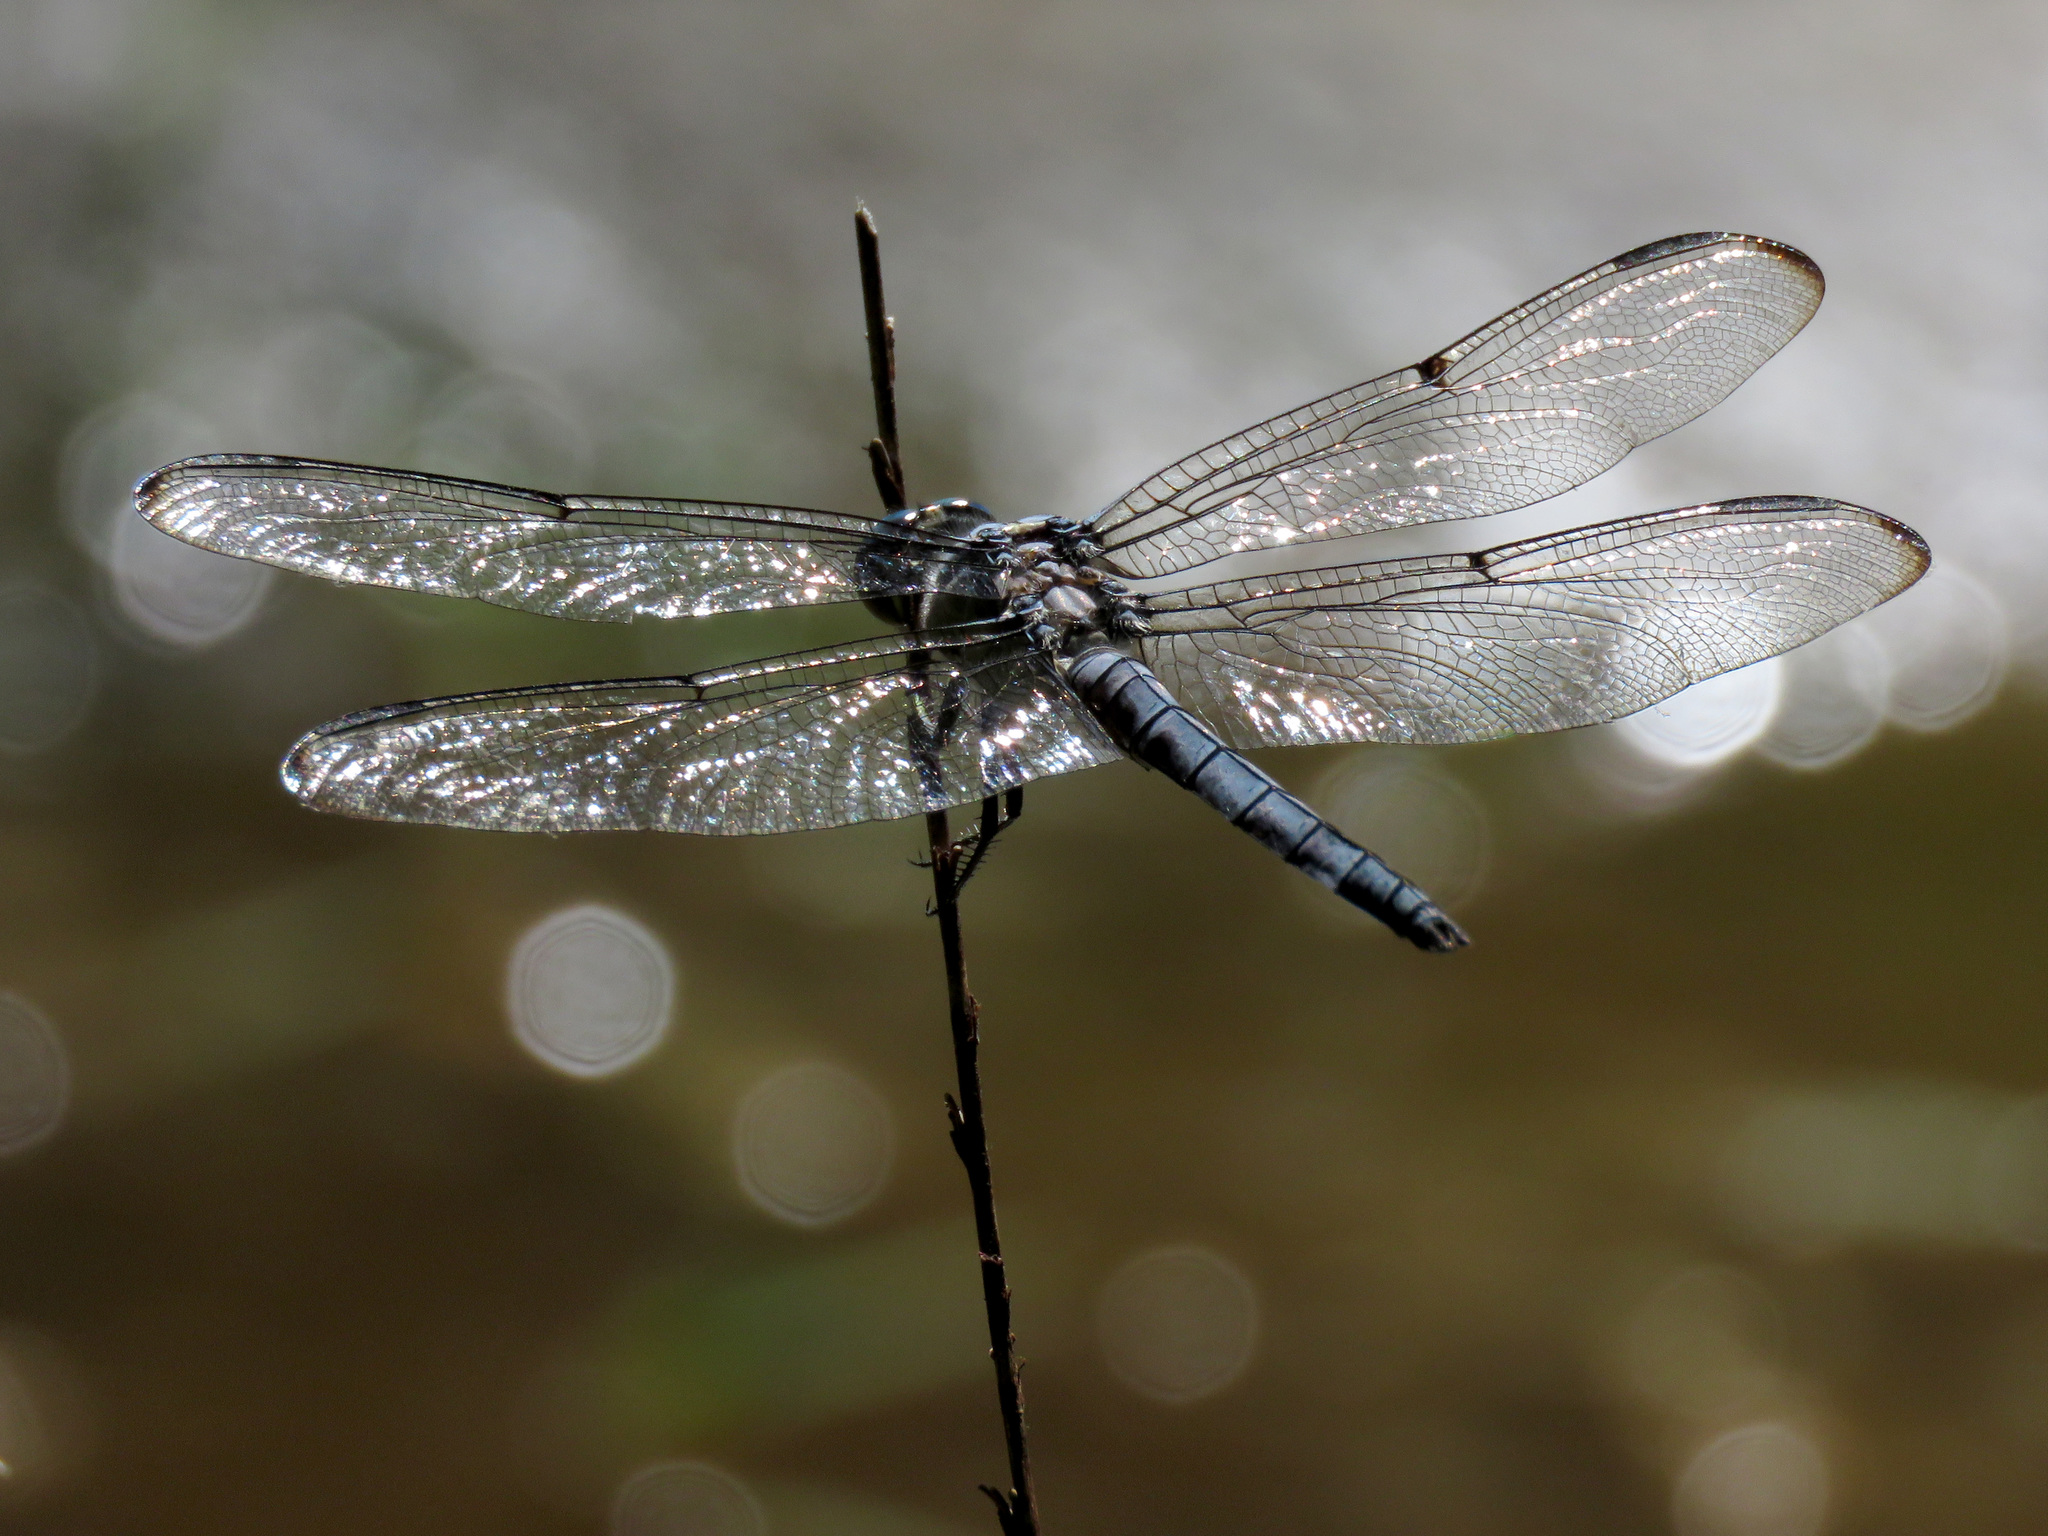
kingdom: Animalia
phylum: Arthropoda
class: Insecta
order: Odonata
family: Libellulidae
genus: Libellula
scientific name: Libellula vibrans
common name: Great blue skimmer
